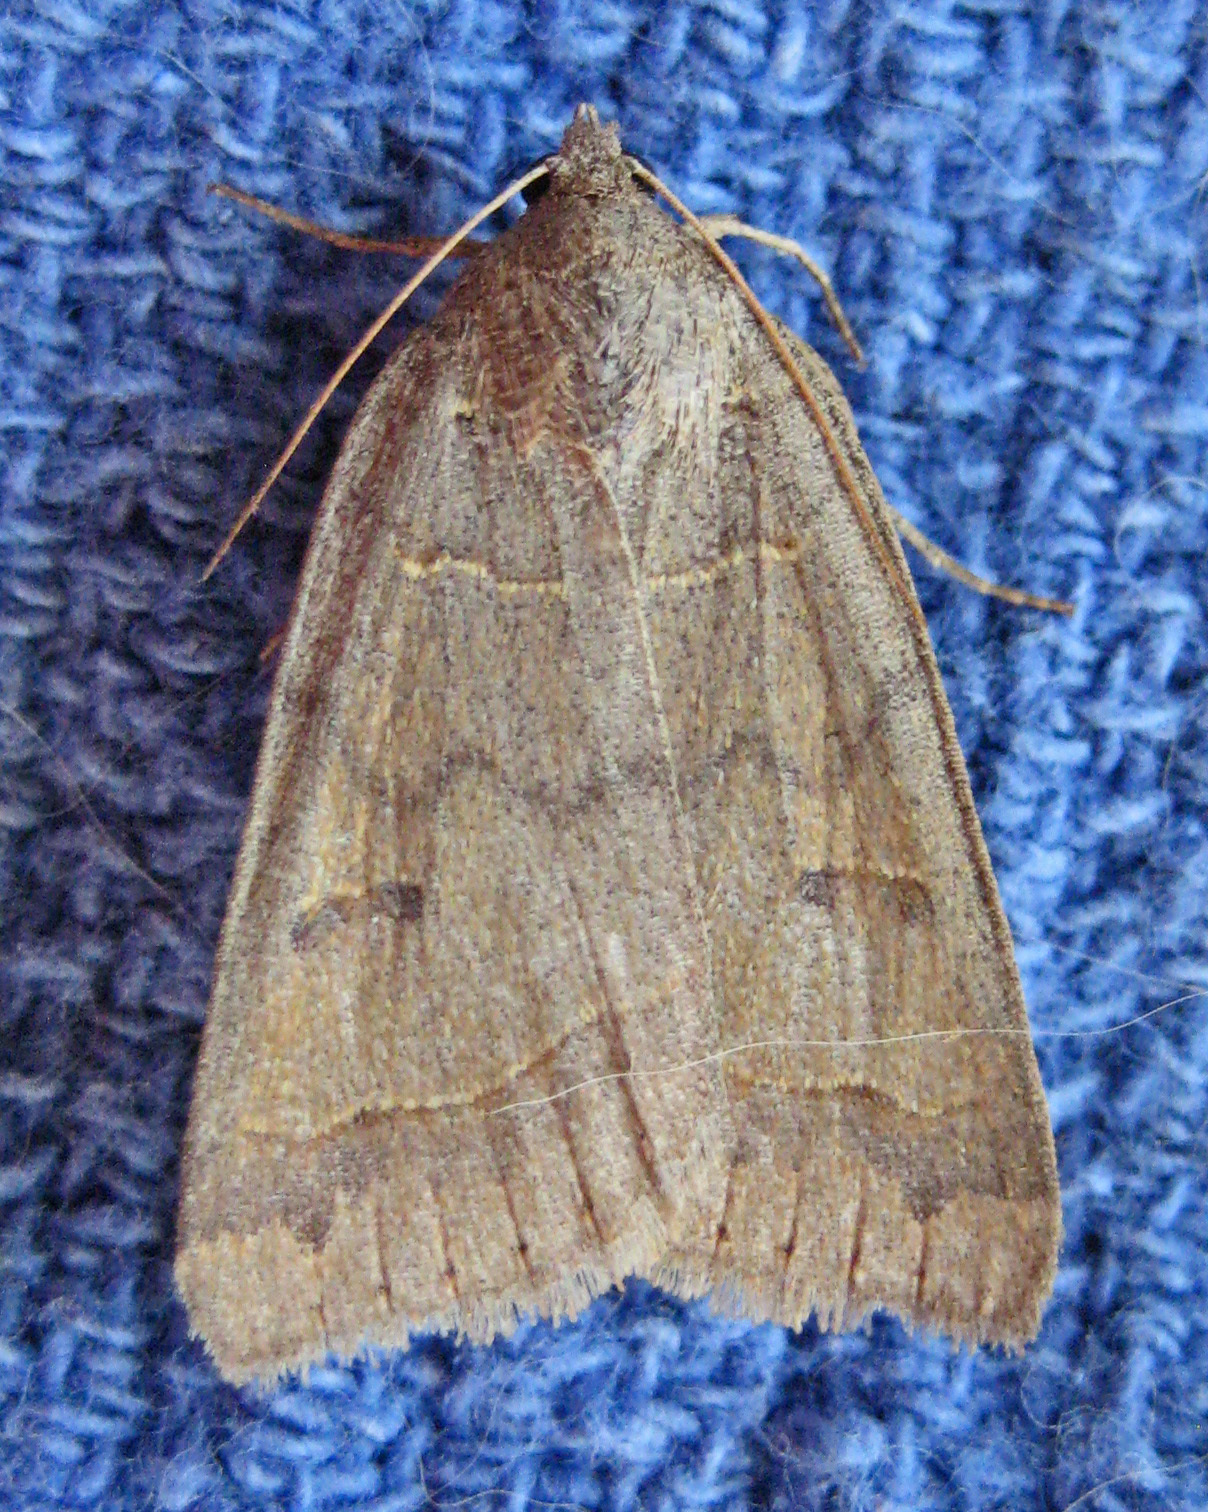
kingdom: Animalia
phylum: Arthropoda
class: Insecta
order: Lepidoptera
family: Erebidae
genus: Phoberia
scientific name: Phoberia atomaris
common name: Common oak moth
